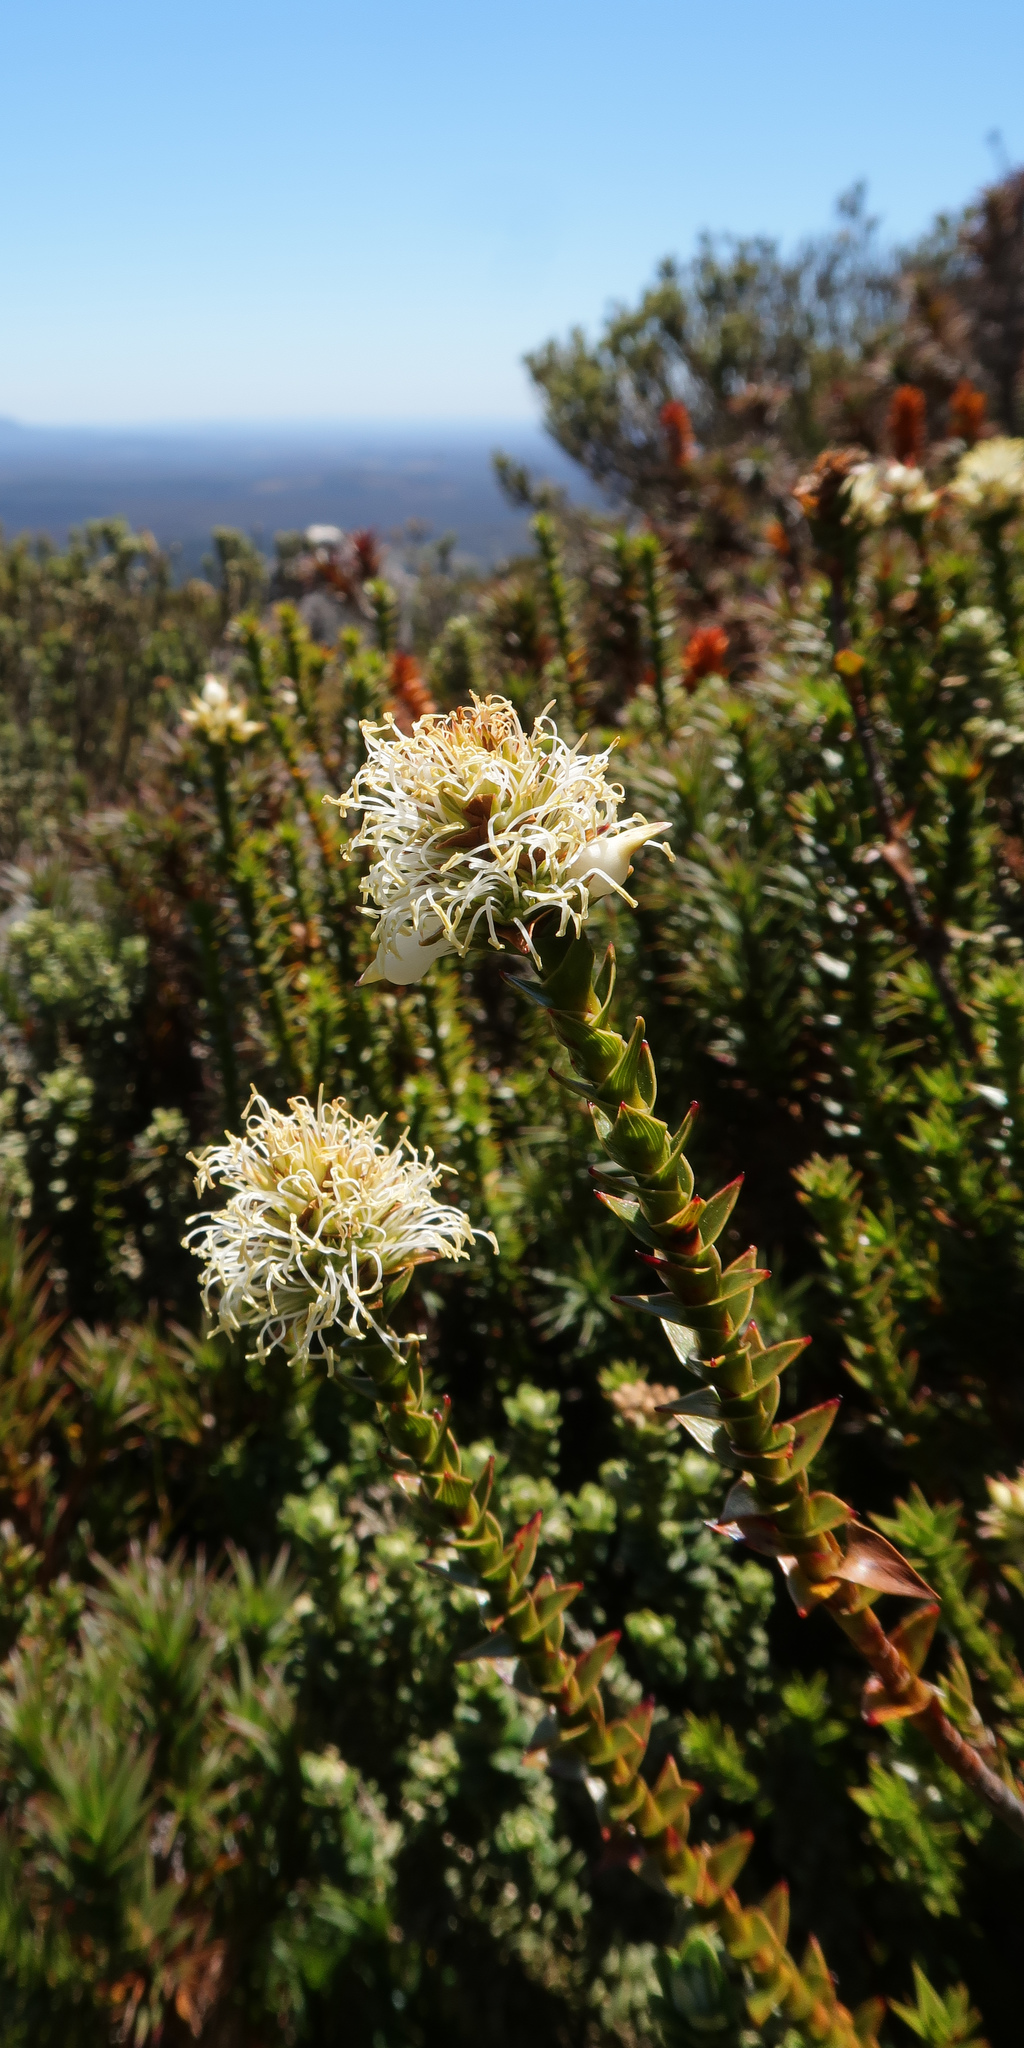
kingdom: Plantae
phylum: Tracheophyta
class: Magnoliopsida
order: Ericales
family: Ericaceae
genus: Dracophyllum
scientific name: Dracophyllum sprengelioides
